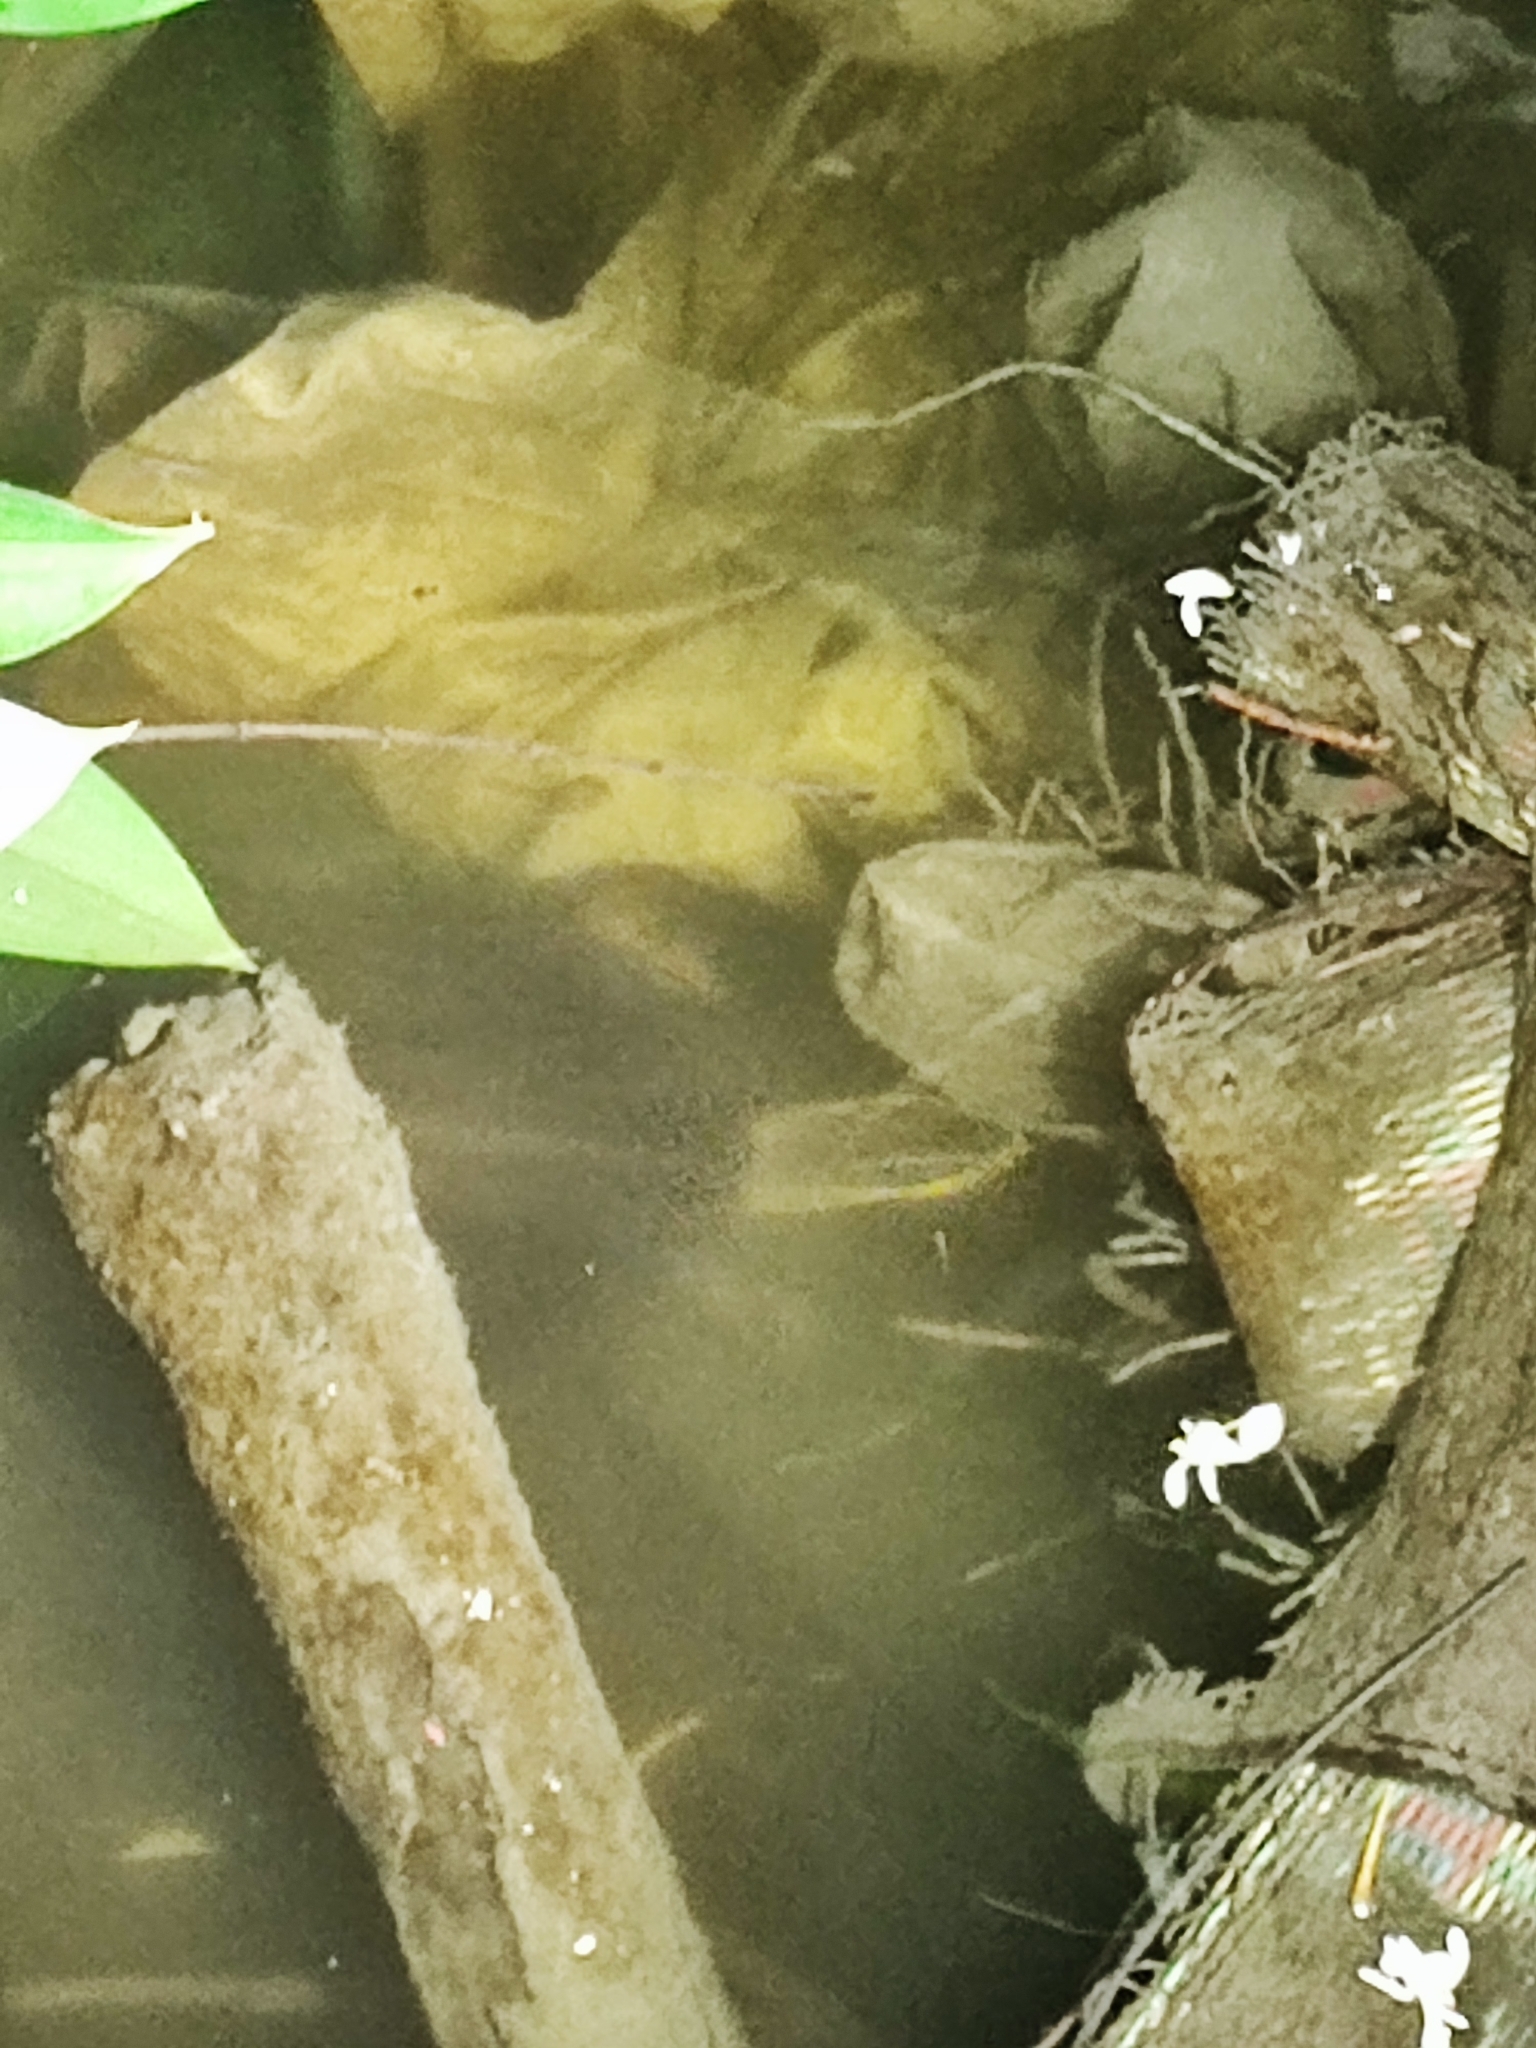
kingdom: Animalia
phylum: Chordata
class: Testudines
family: Geoemydidae
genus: Malayemys
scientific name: Malayemys macrocephala
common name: Malayan snail-eating turtle
